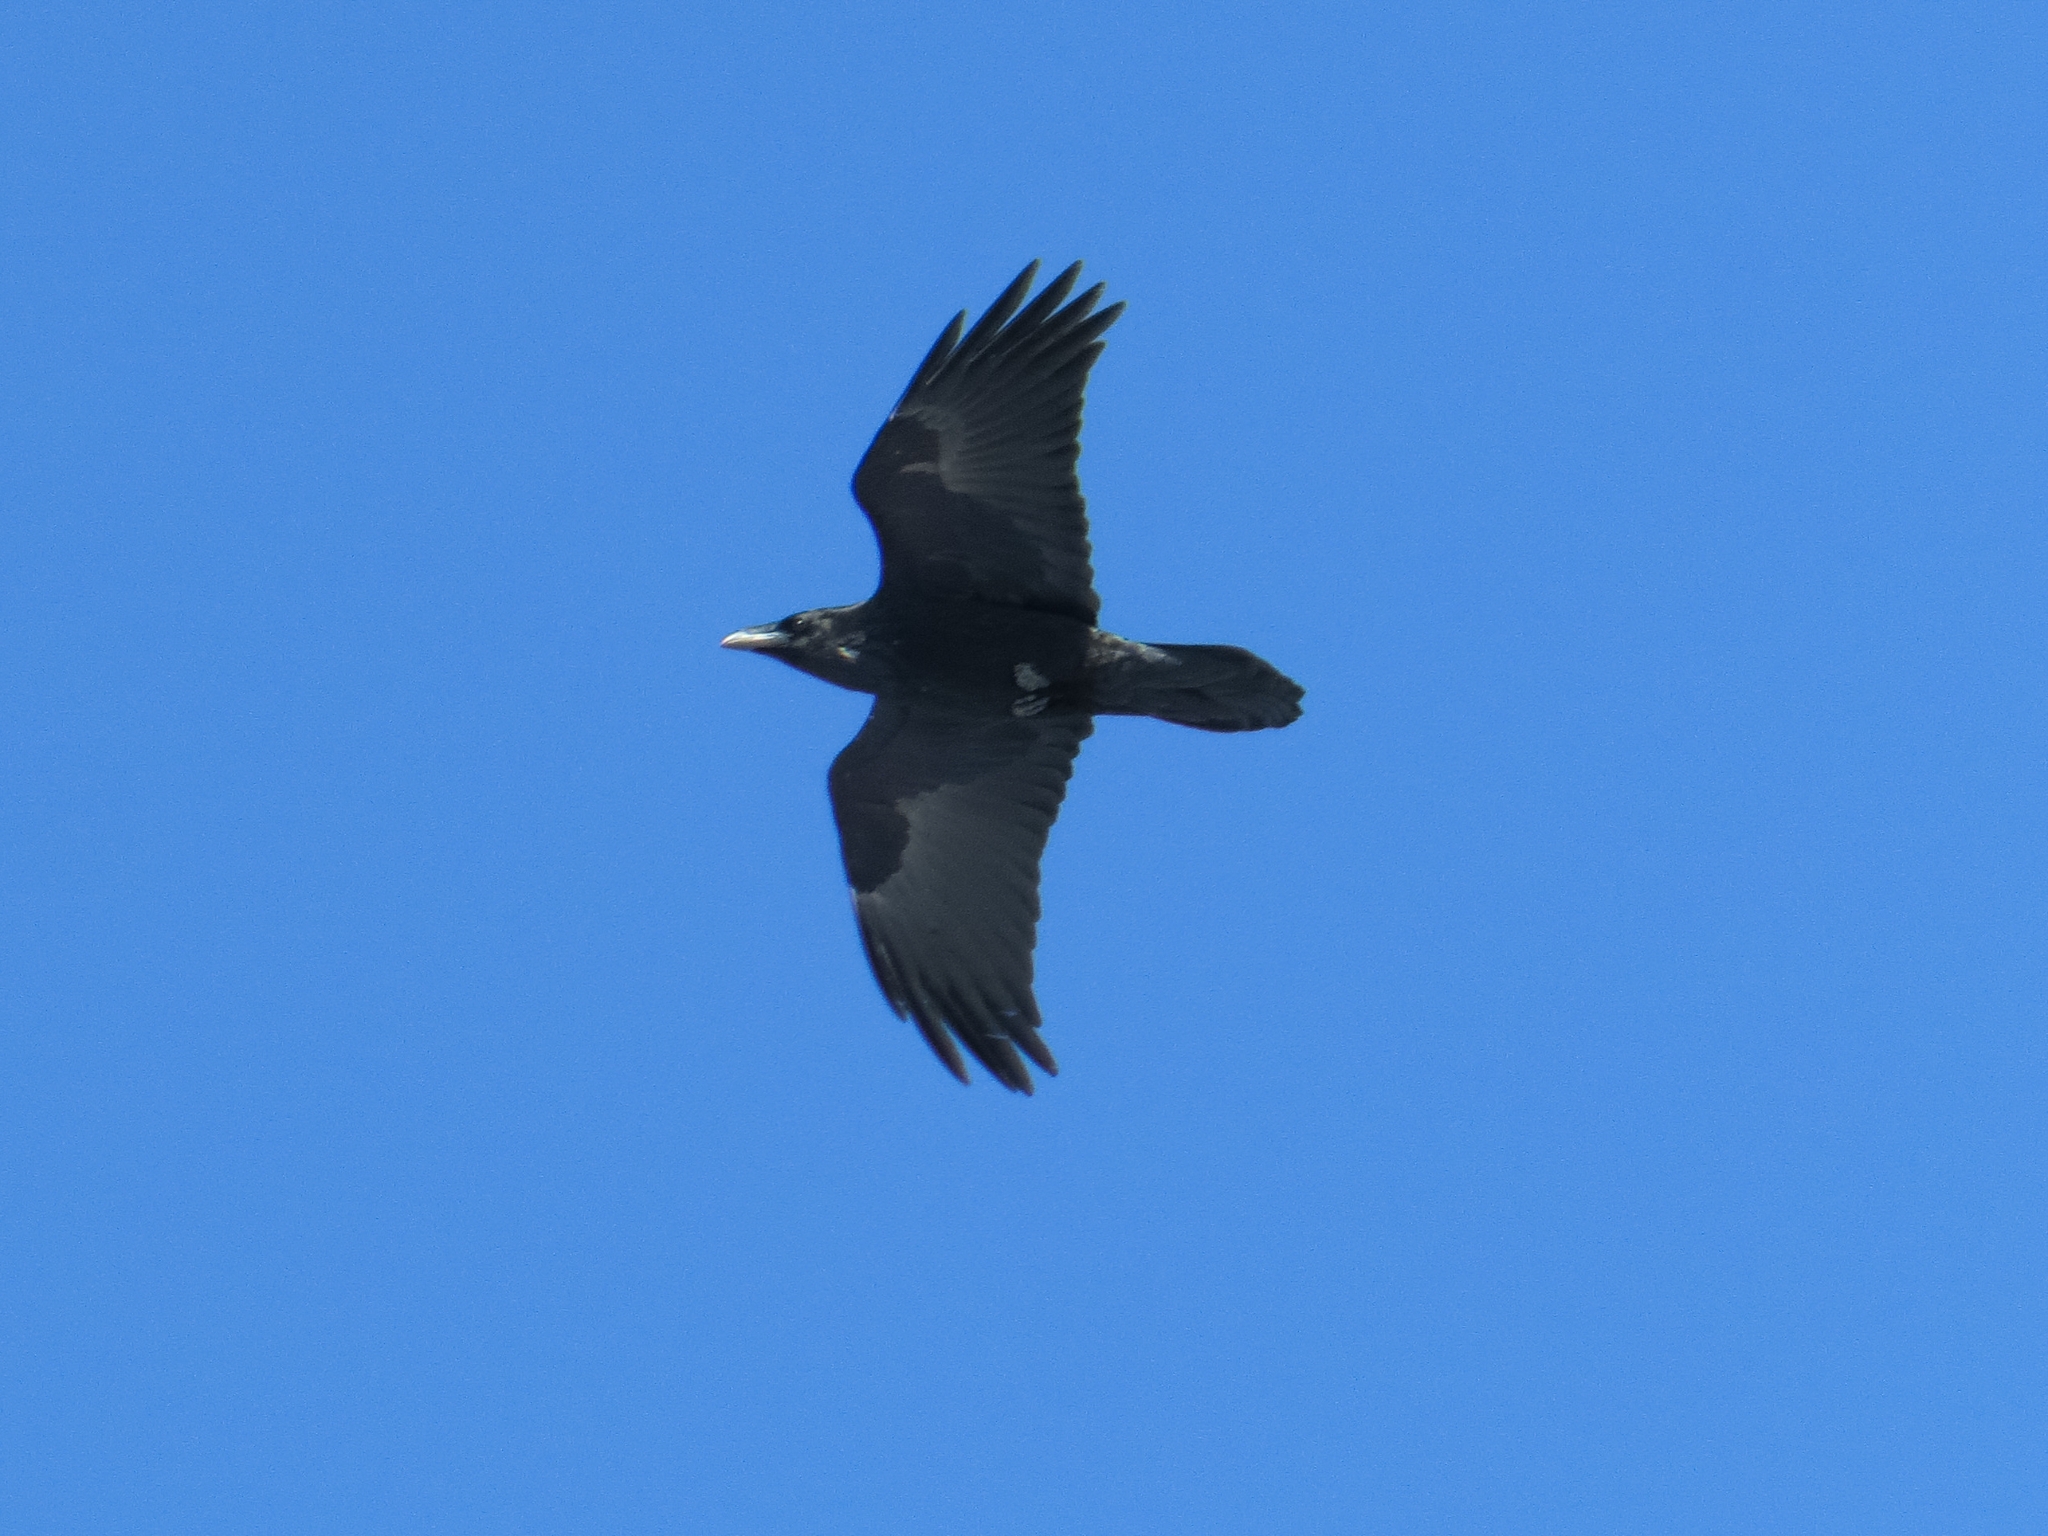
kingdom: Animalia
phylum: Chordata
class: Aves
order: Passeriformes
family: Corvidae
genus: Corvus
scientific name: Corvus corax
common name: Common raven
